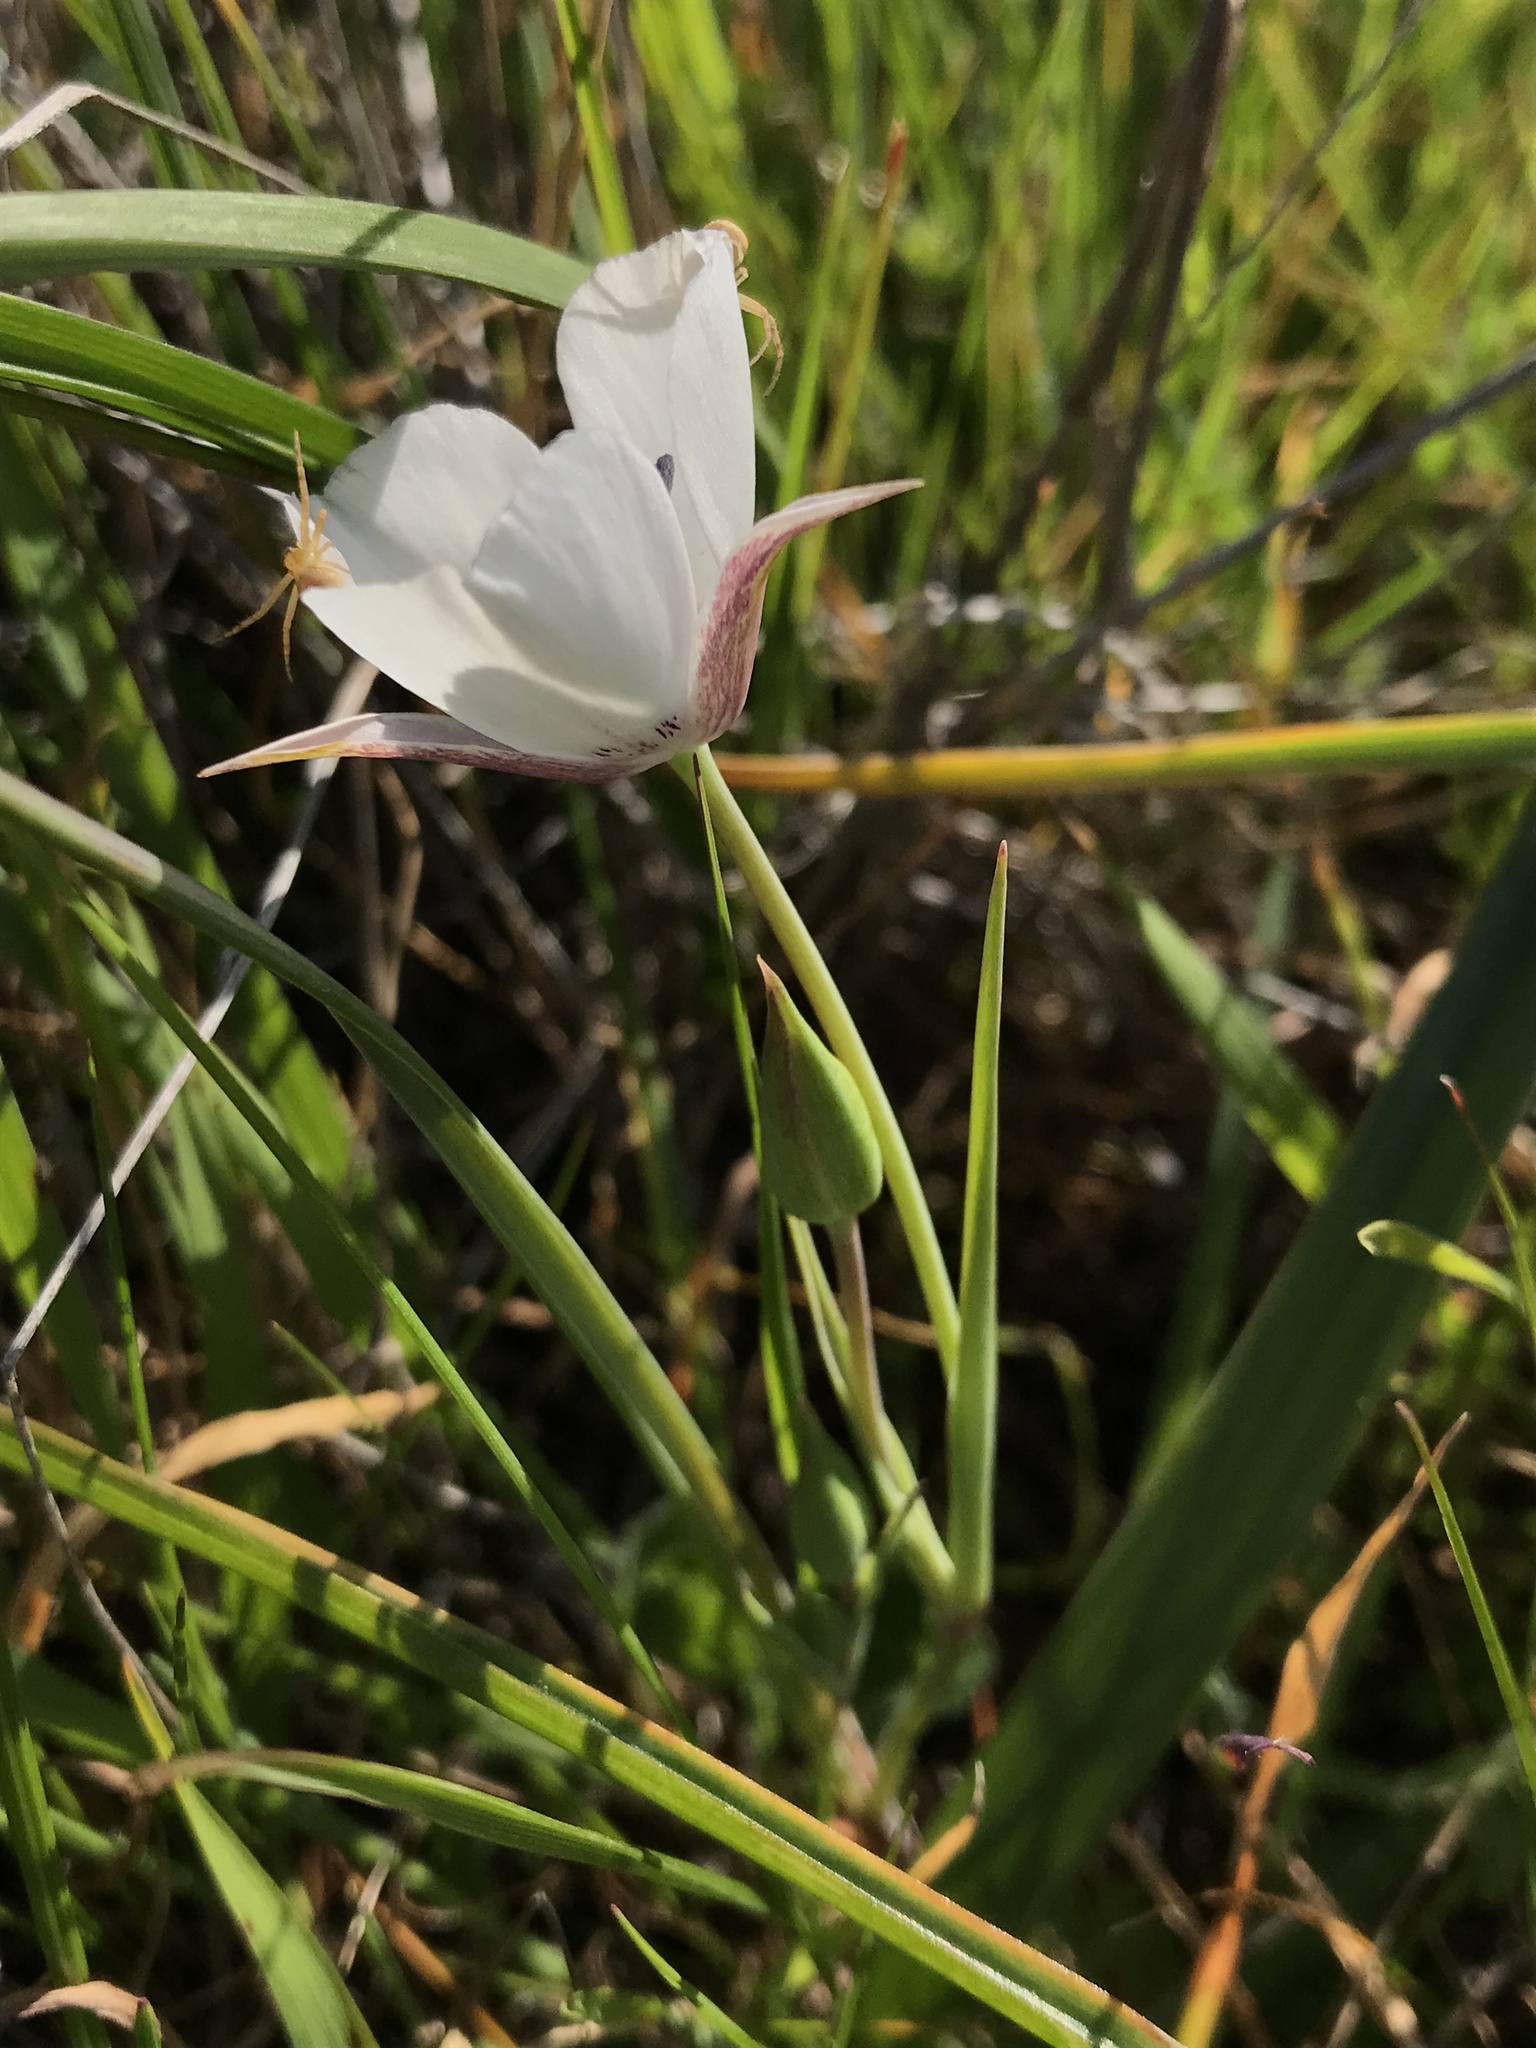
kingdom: Plantae
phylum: Tracheophyta
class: Liliopsida
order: Liliales
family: Liliaceae
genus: Calochortus
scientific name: Calochortus umbellatus
